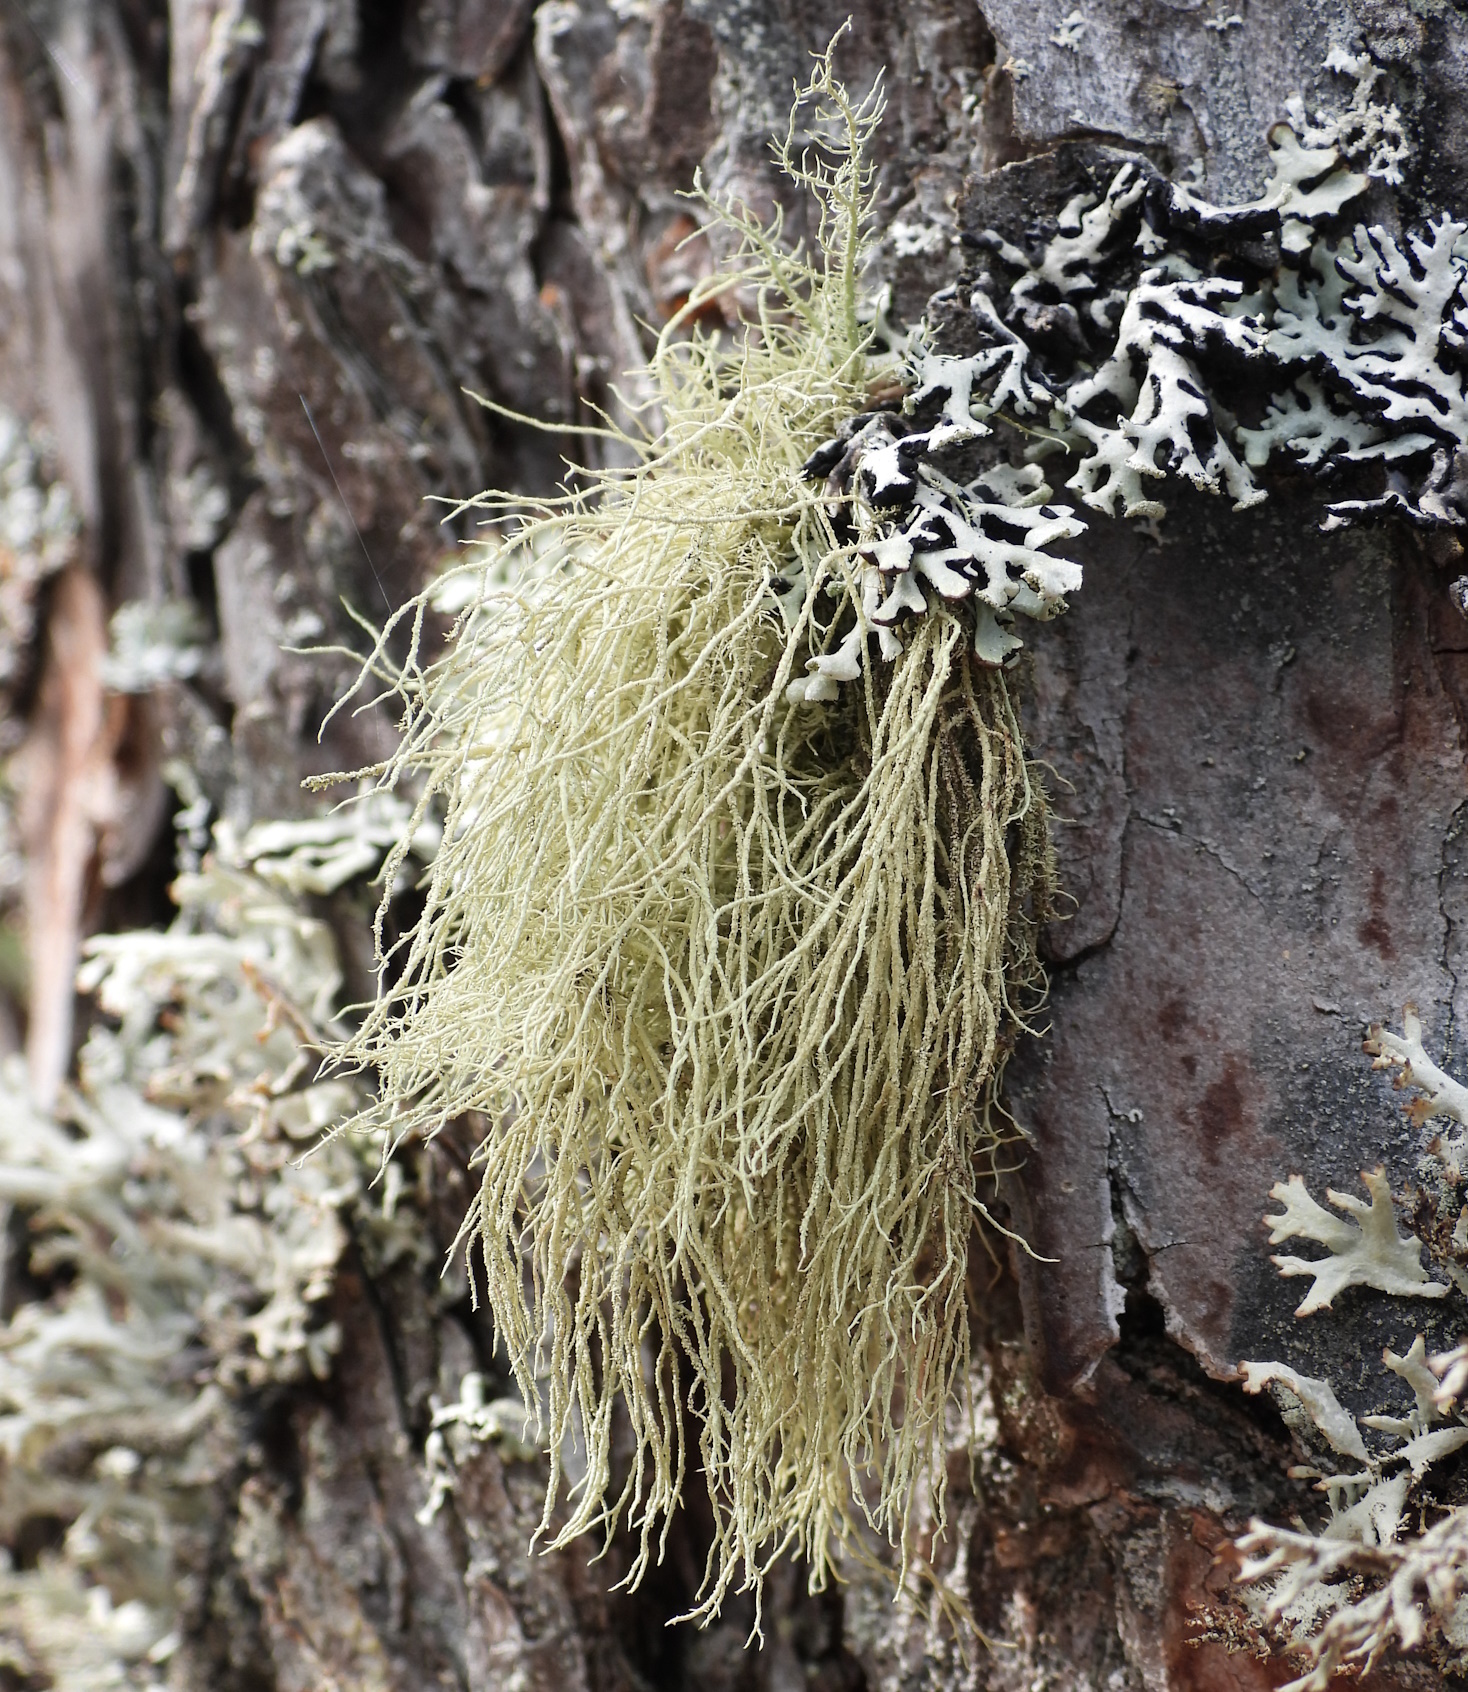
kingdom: Fungi
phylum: Ascomycota
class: Lecanoromycetes
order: Lecanorales
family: Parmeliaceae
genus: Usnea
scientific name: Usnea hirta
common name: Bristly beard lichen
